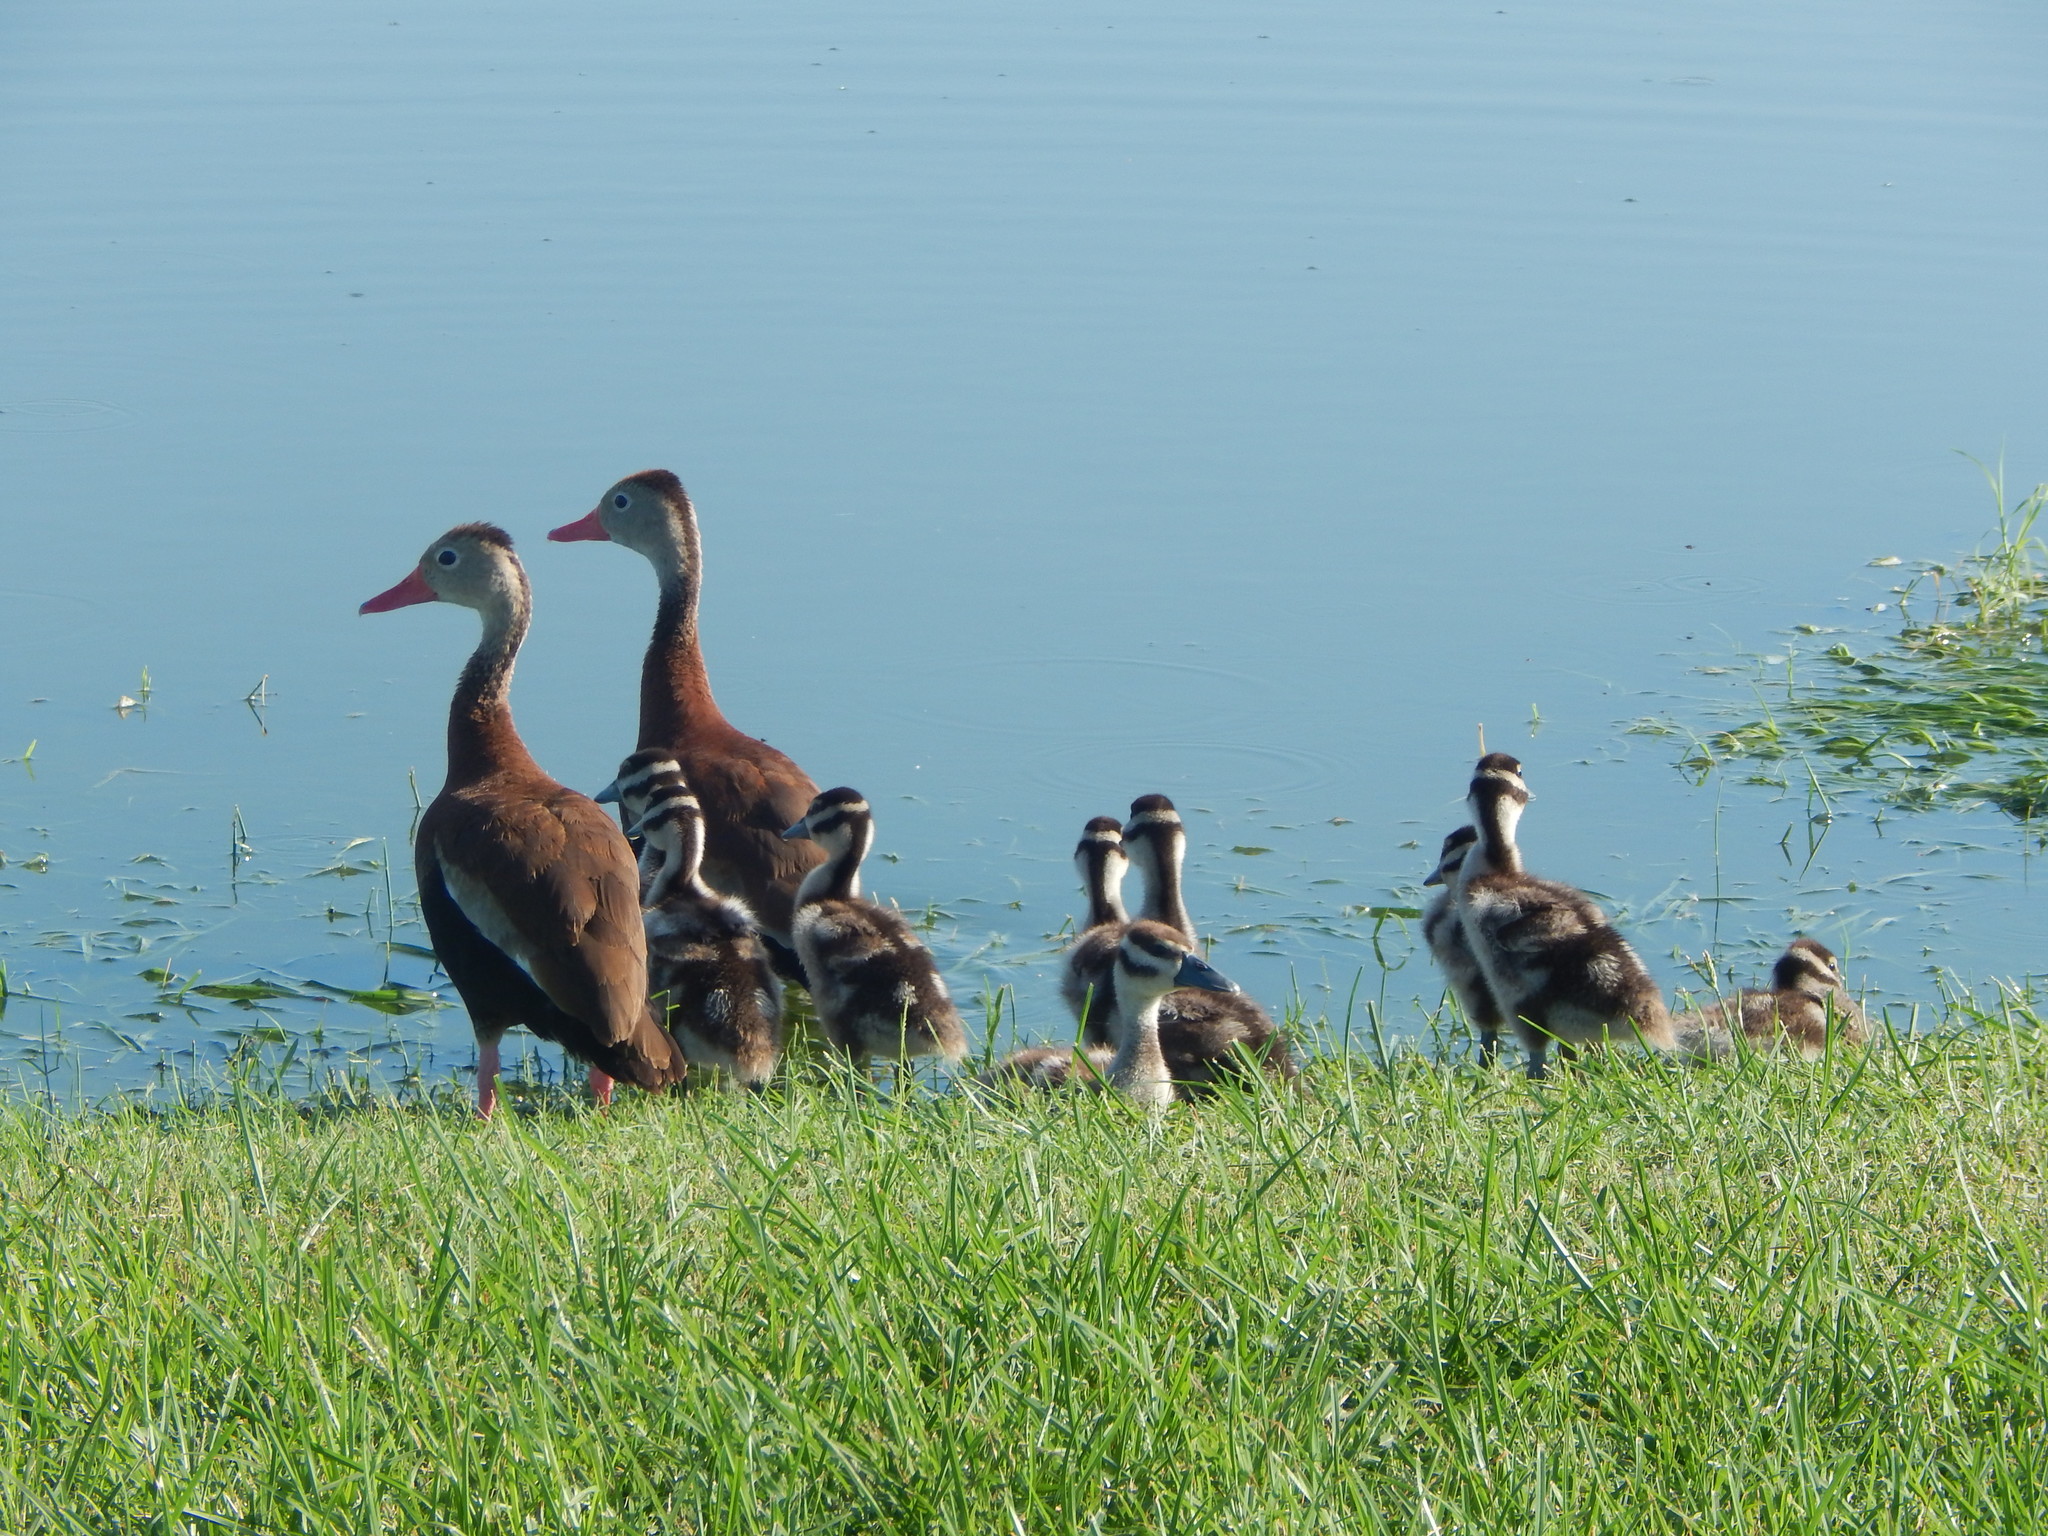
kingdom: Animalia
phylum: Chordata
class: Aves
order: Anseriformes
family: Anatidae
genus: Dendrocygna
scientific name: Dendrocygna autumnalis
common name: Black-bellied whistling duck
